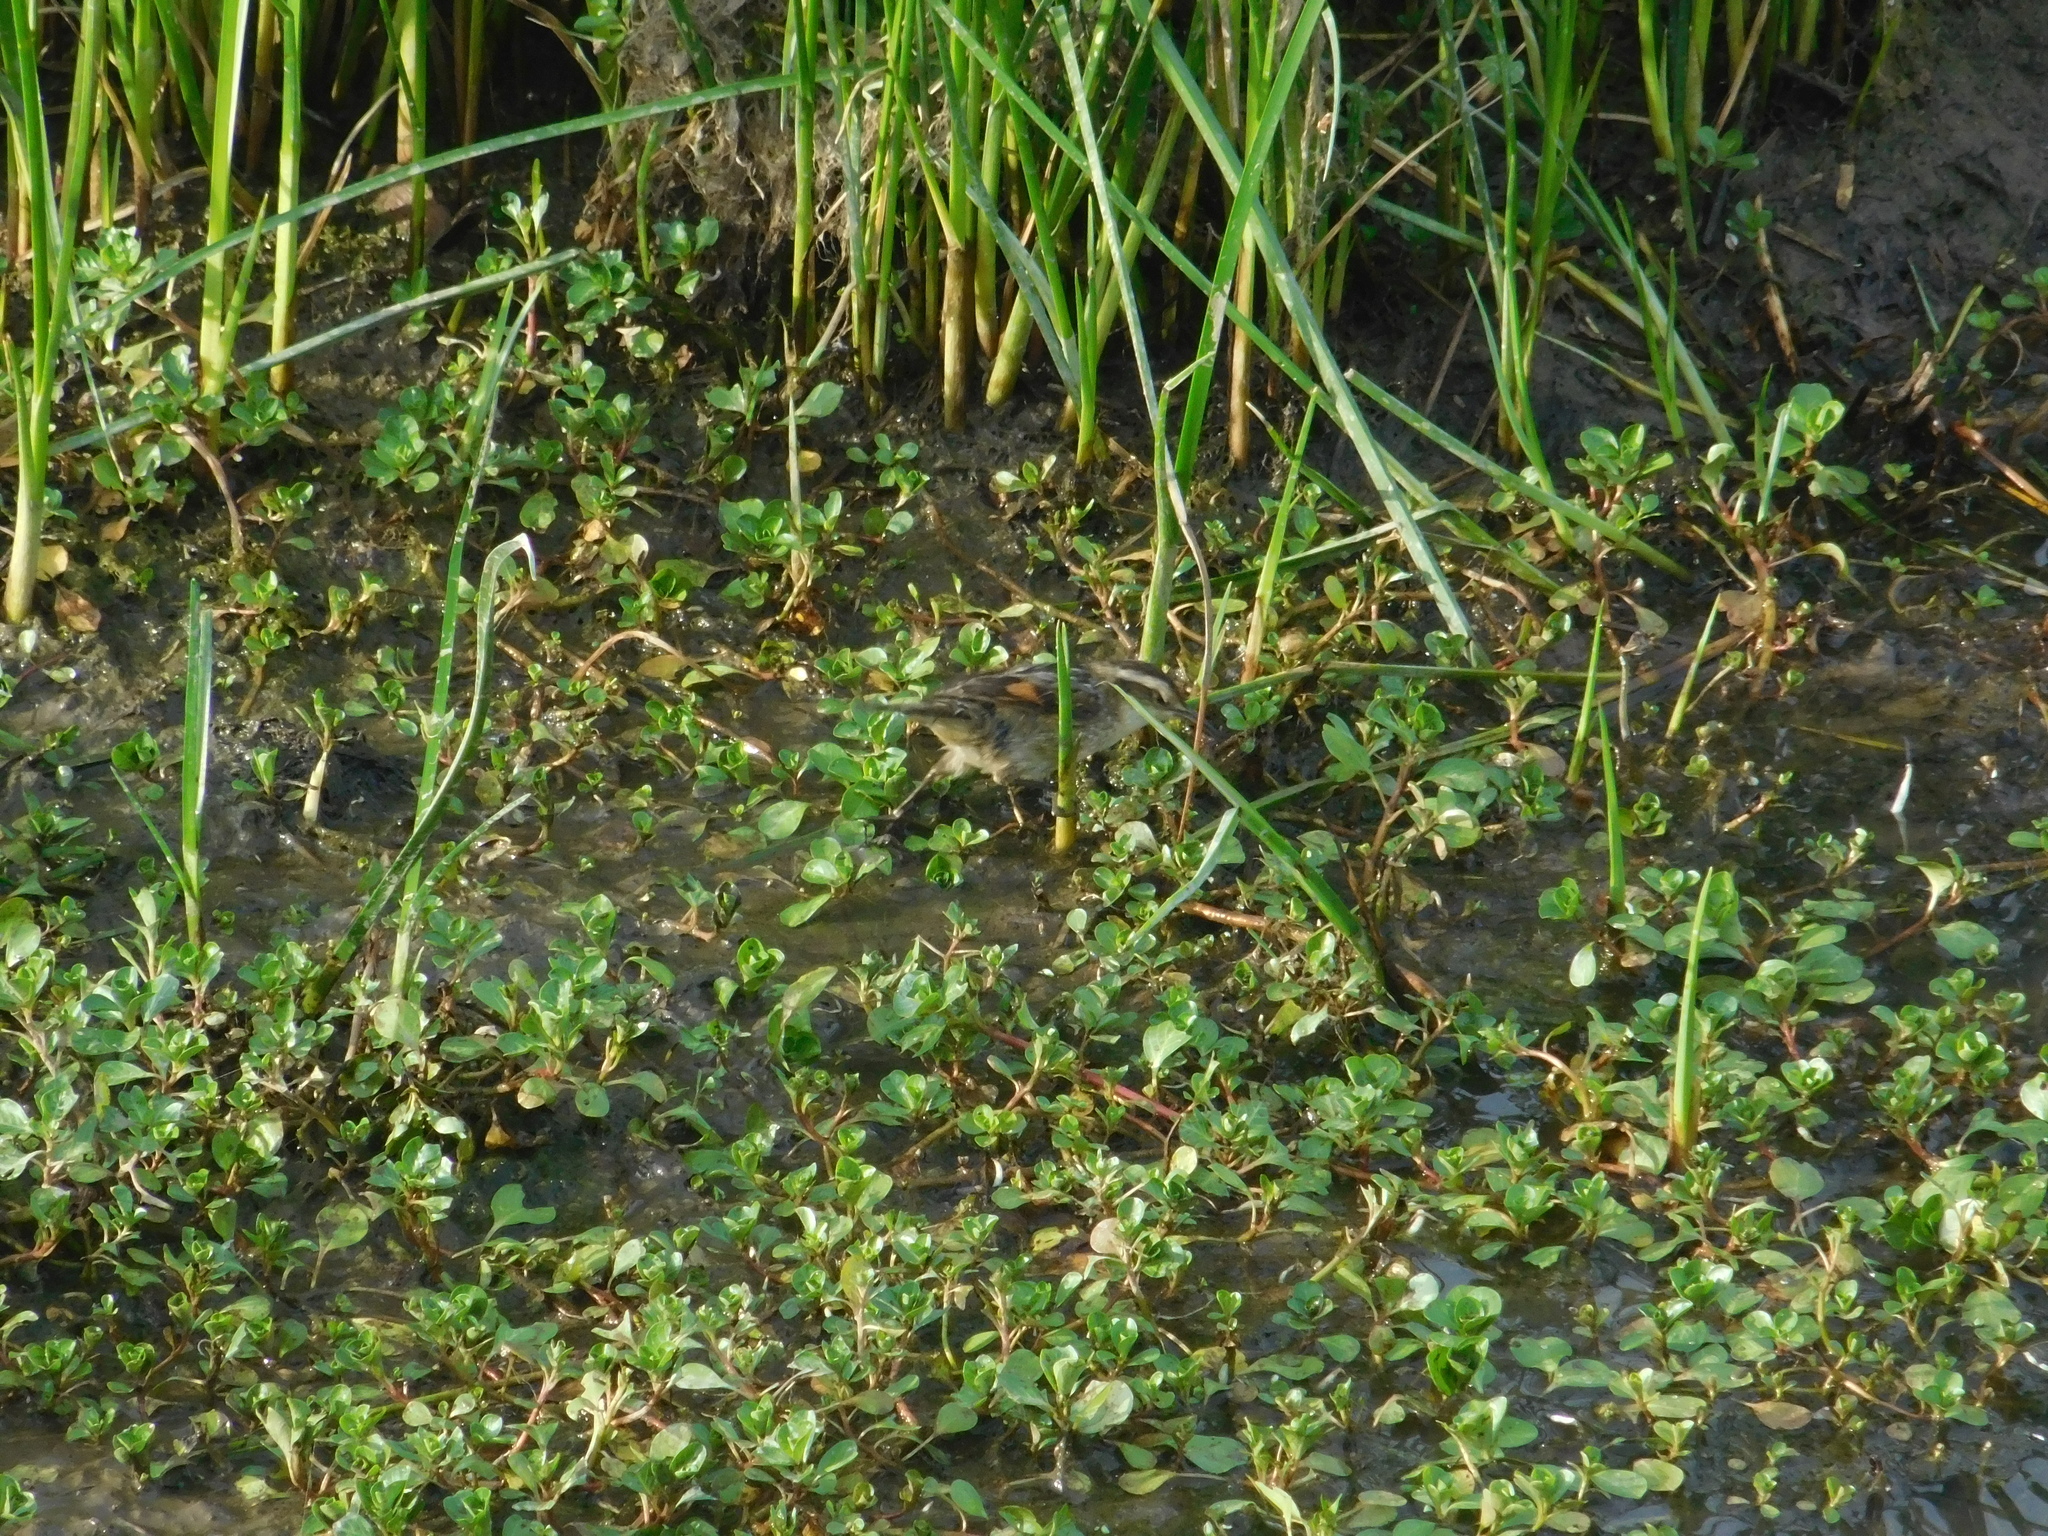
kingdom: Animalia
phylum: Chordata
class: Aves
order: Passeriformes
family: Furnariidae
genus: Phleocryptes
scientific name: Phleocryptes melanops
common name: Wren-like rushbird
